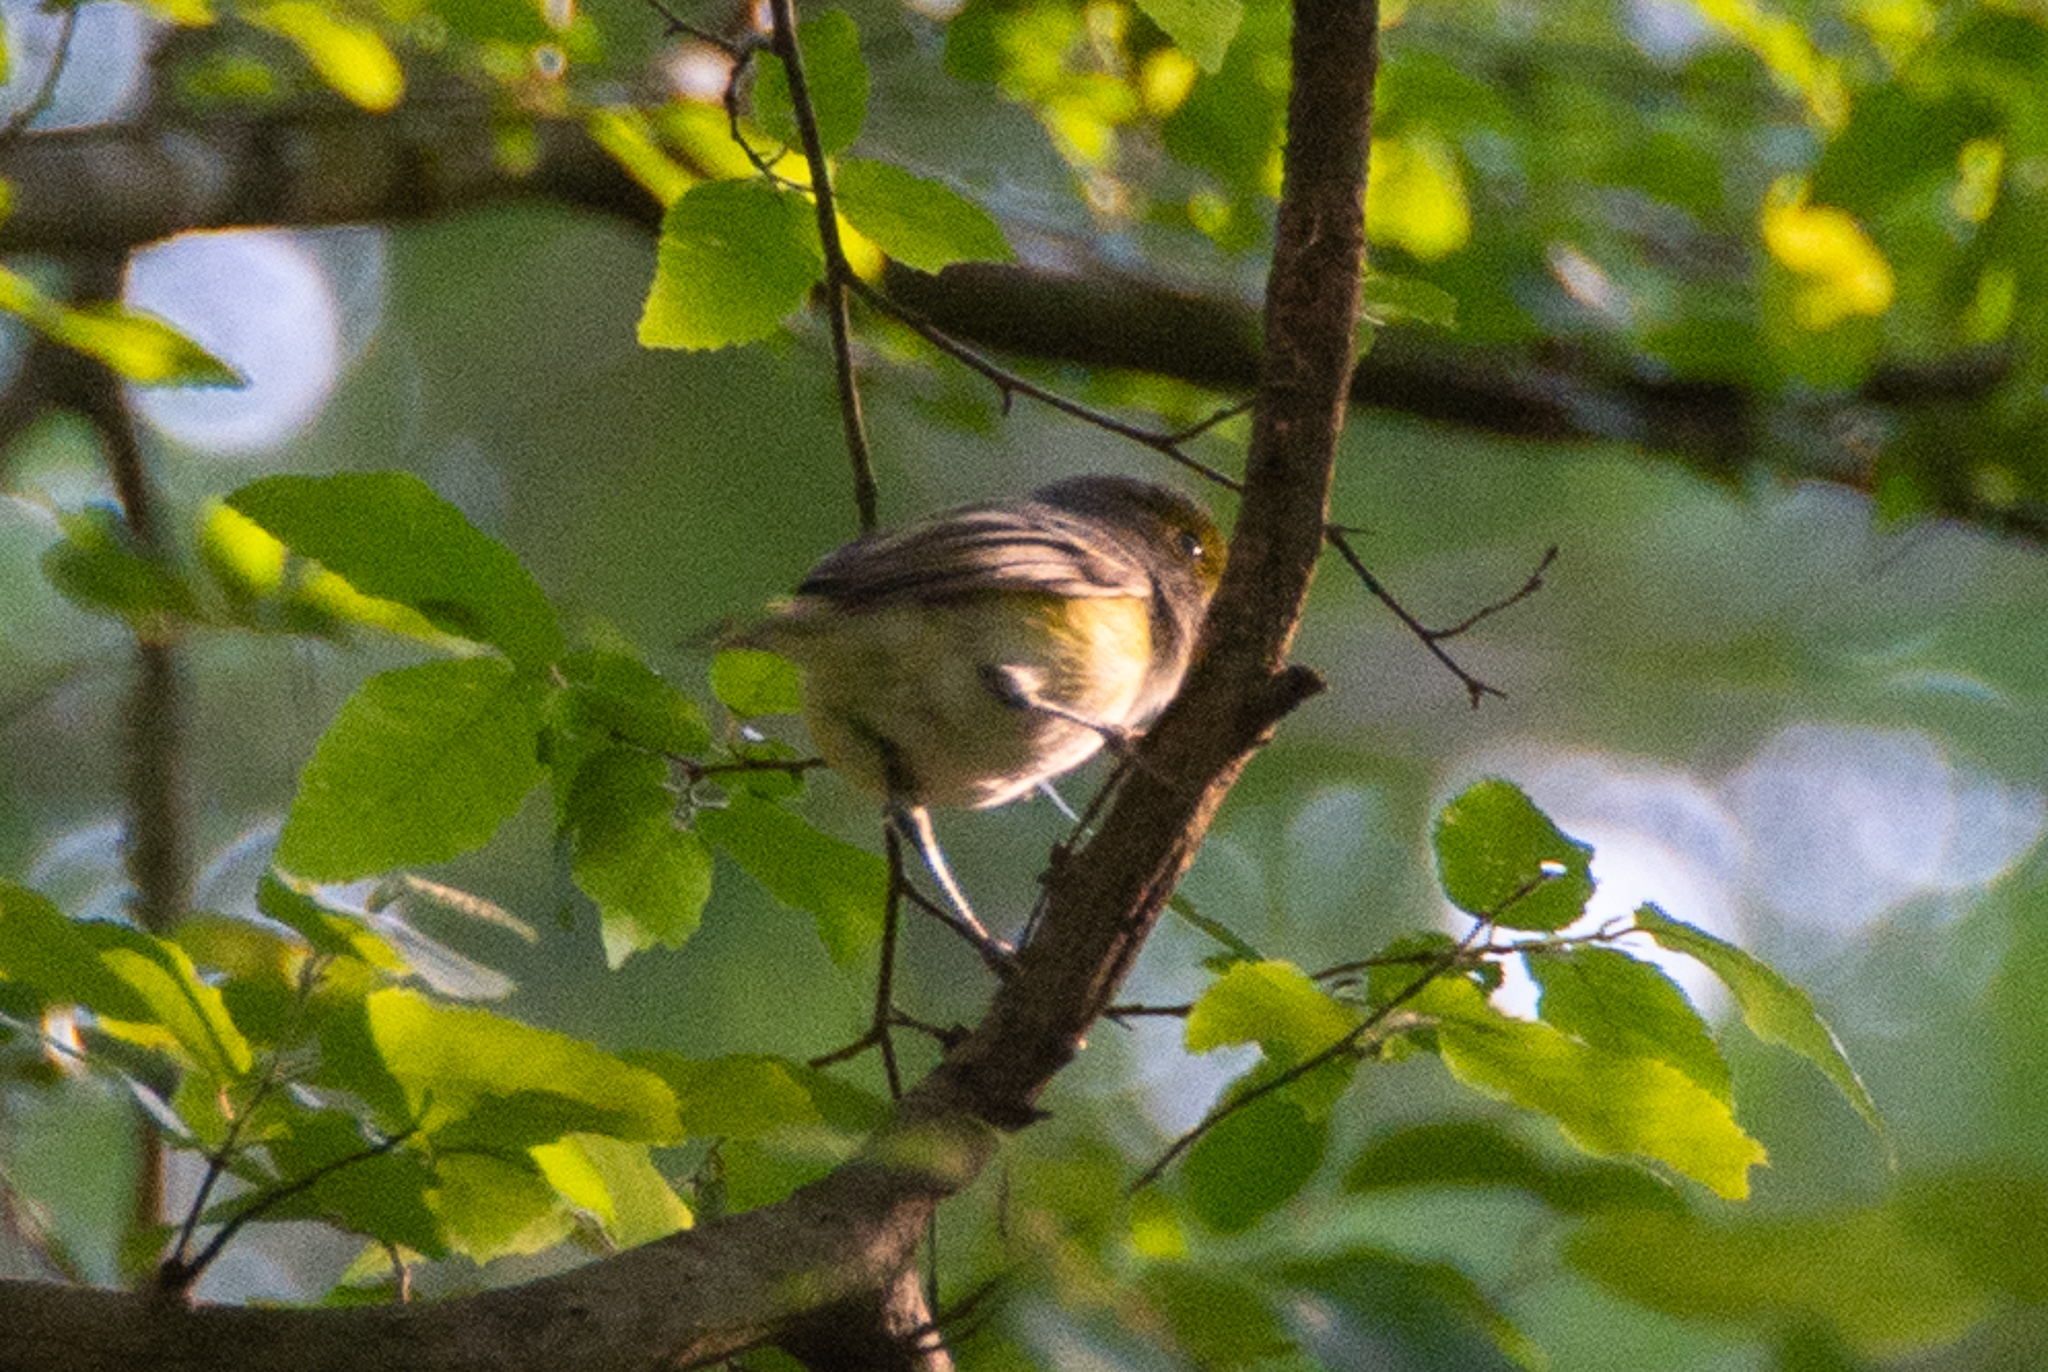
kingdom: Animalia
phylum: Chordata
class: Aves
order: Passeriformes
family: Vireonidae
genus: Vireo
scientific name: Vireo griseus
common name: White-eyed vireo
